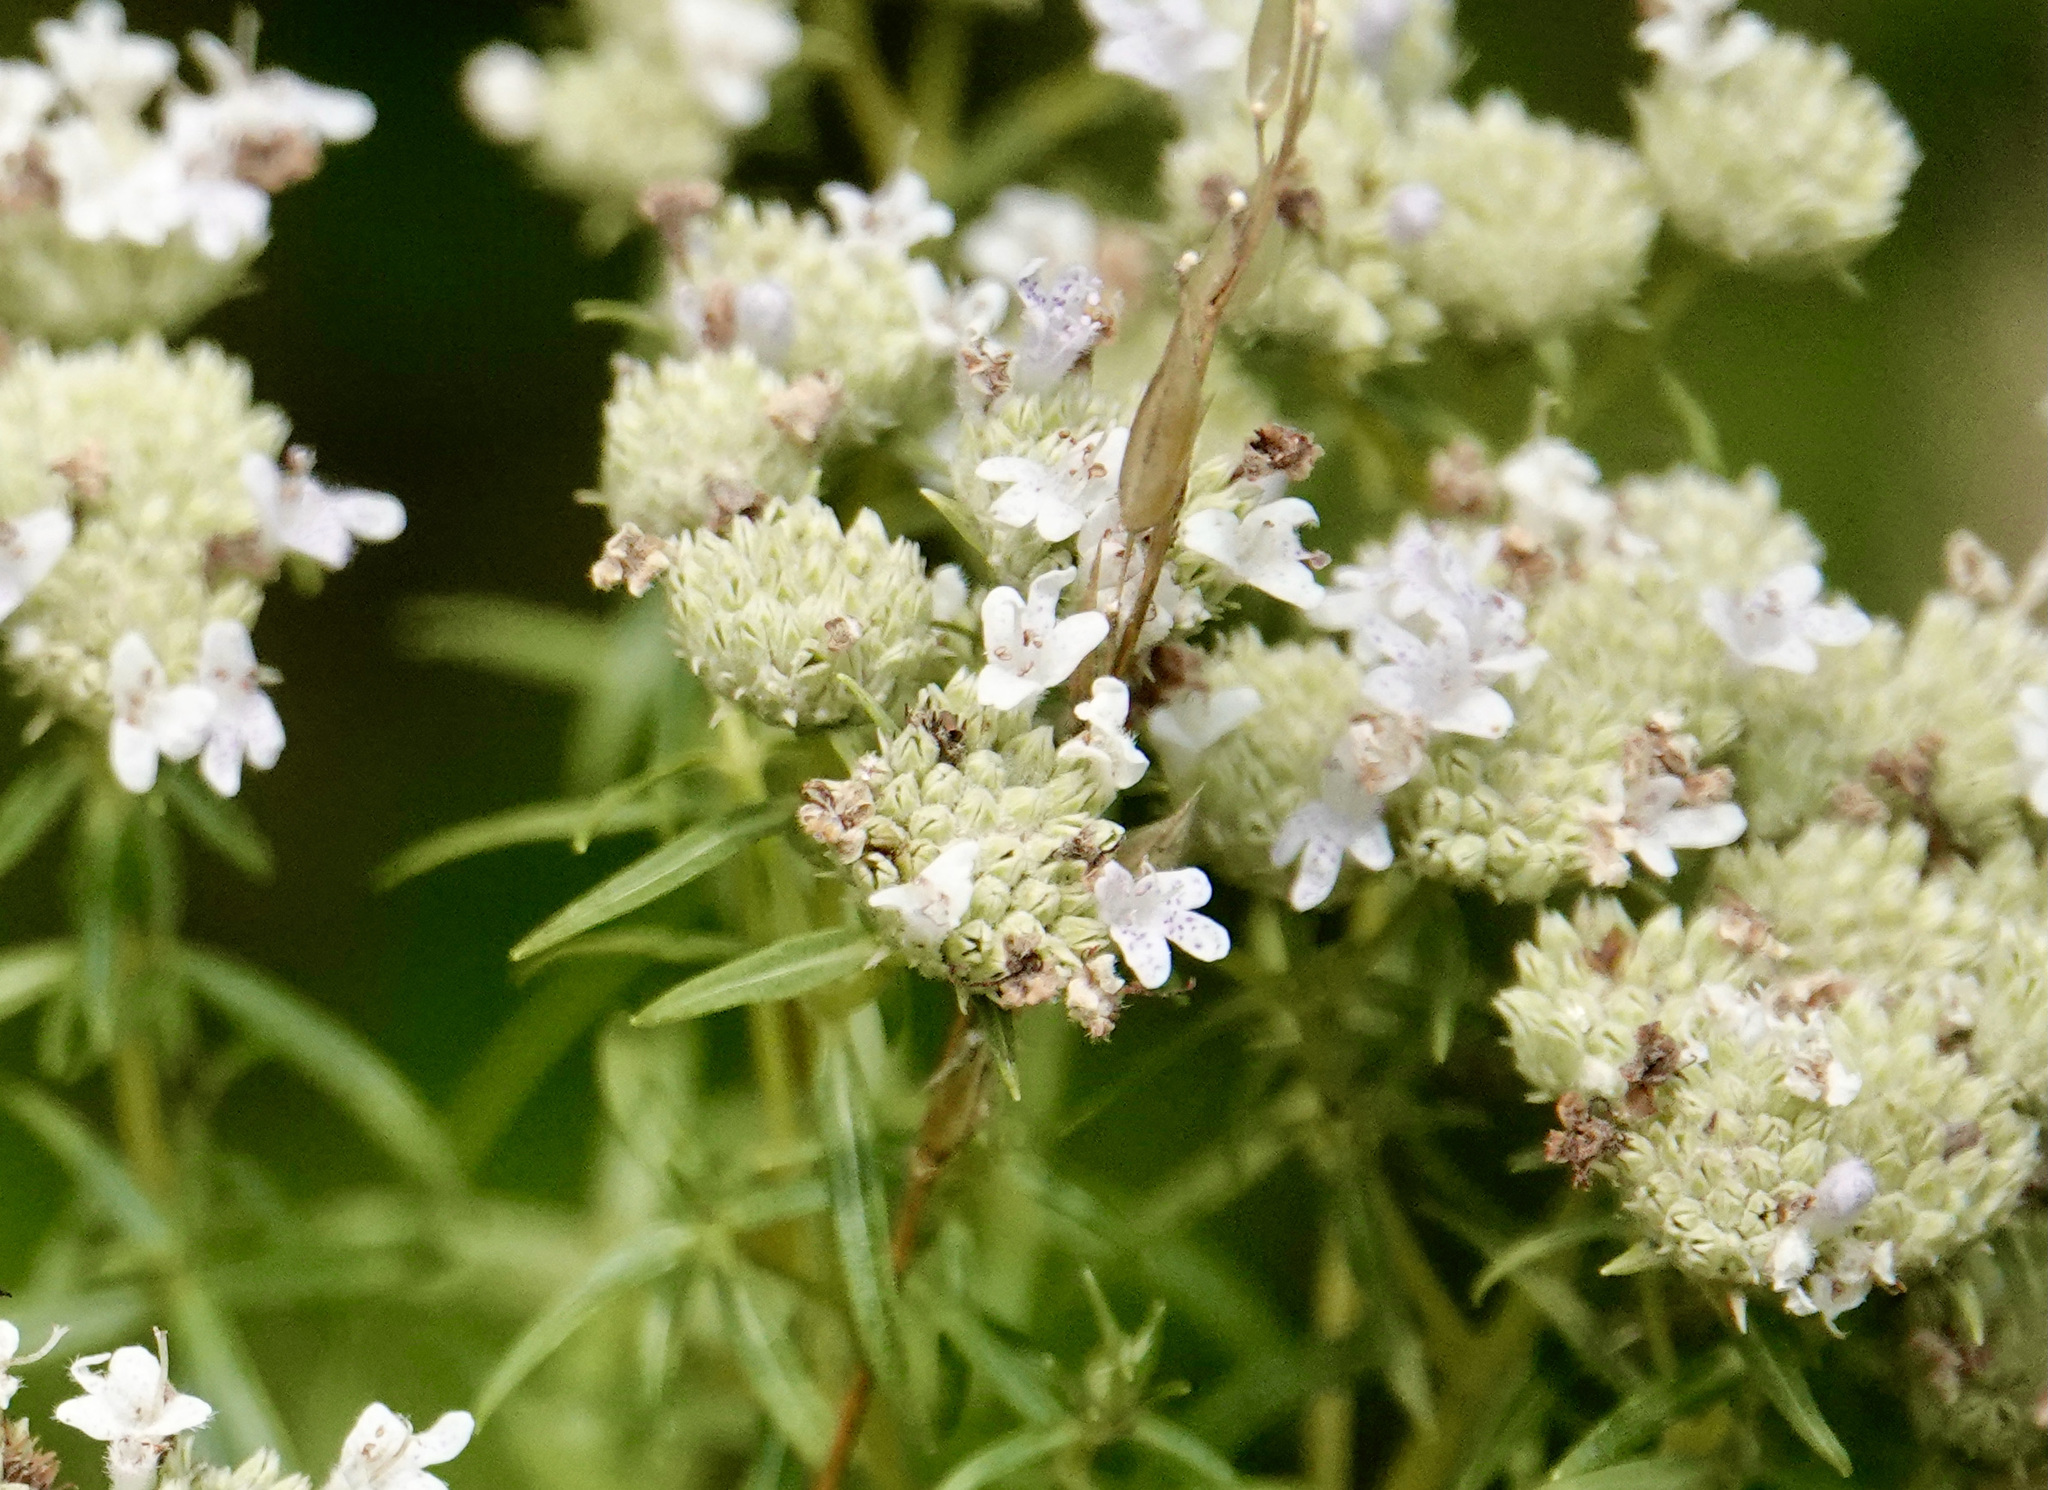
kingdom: Plantae
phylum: Tracheophyta
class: Magnoliopsida
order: Lamiales
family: Lamiaceae
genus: Pycnanthemum
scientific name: Pycnanthemum tenuifolium
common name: Narrow-leaf mountain-mint
